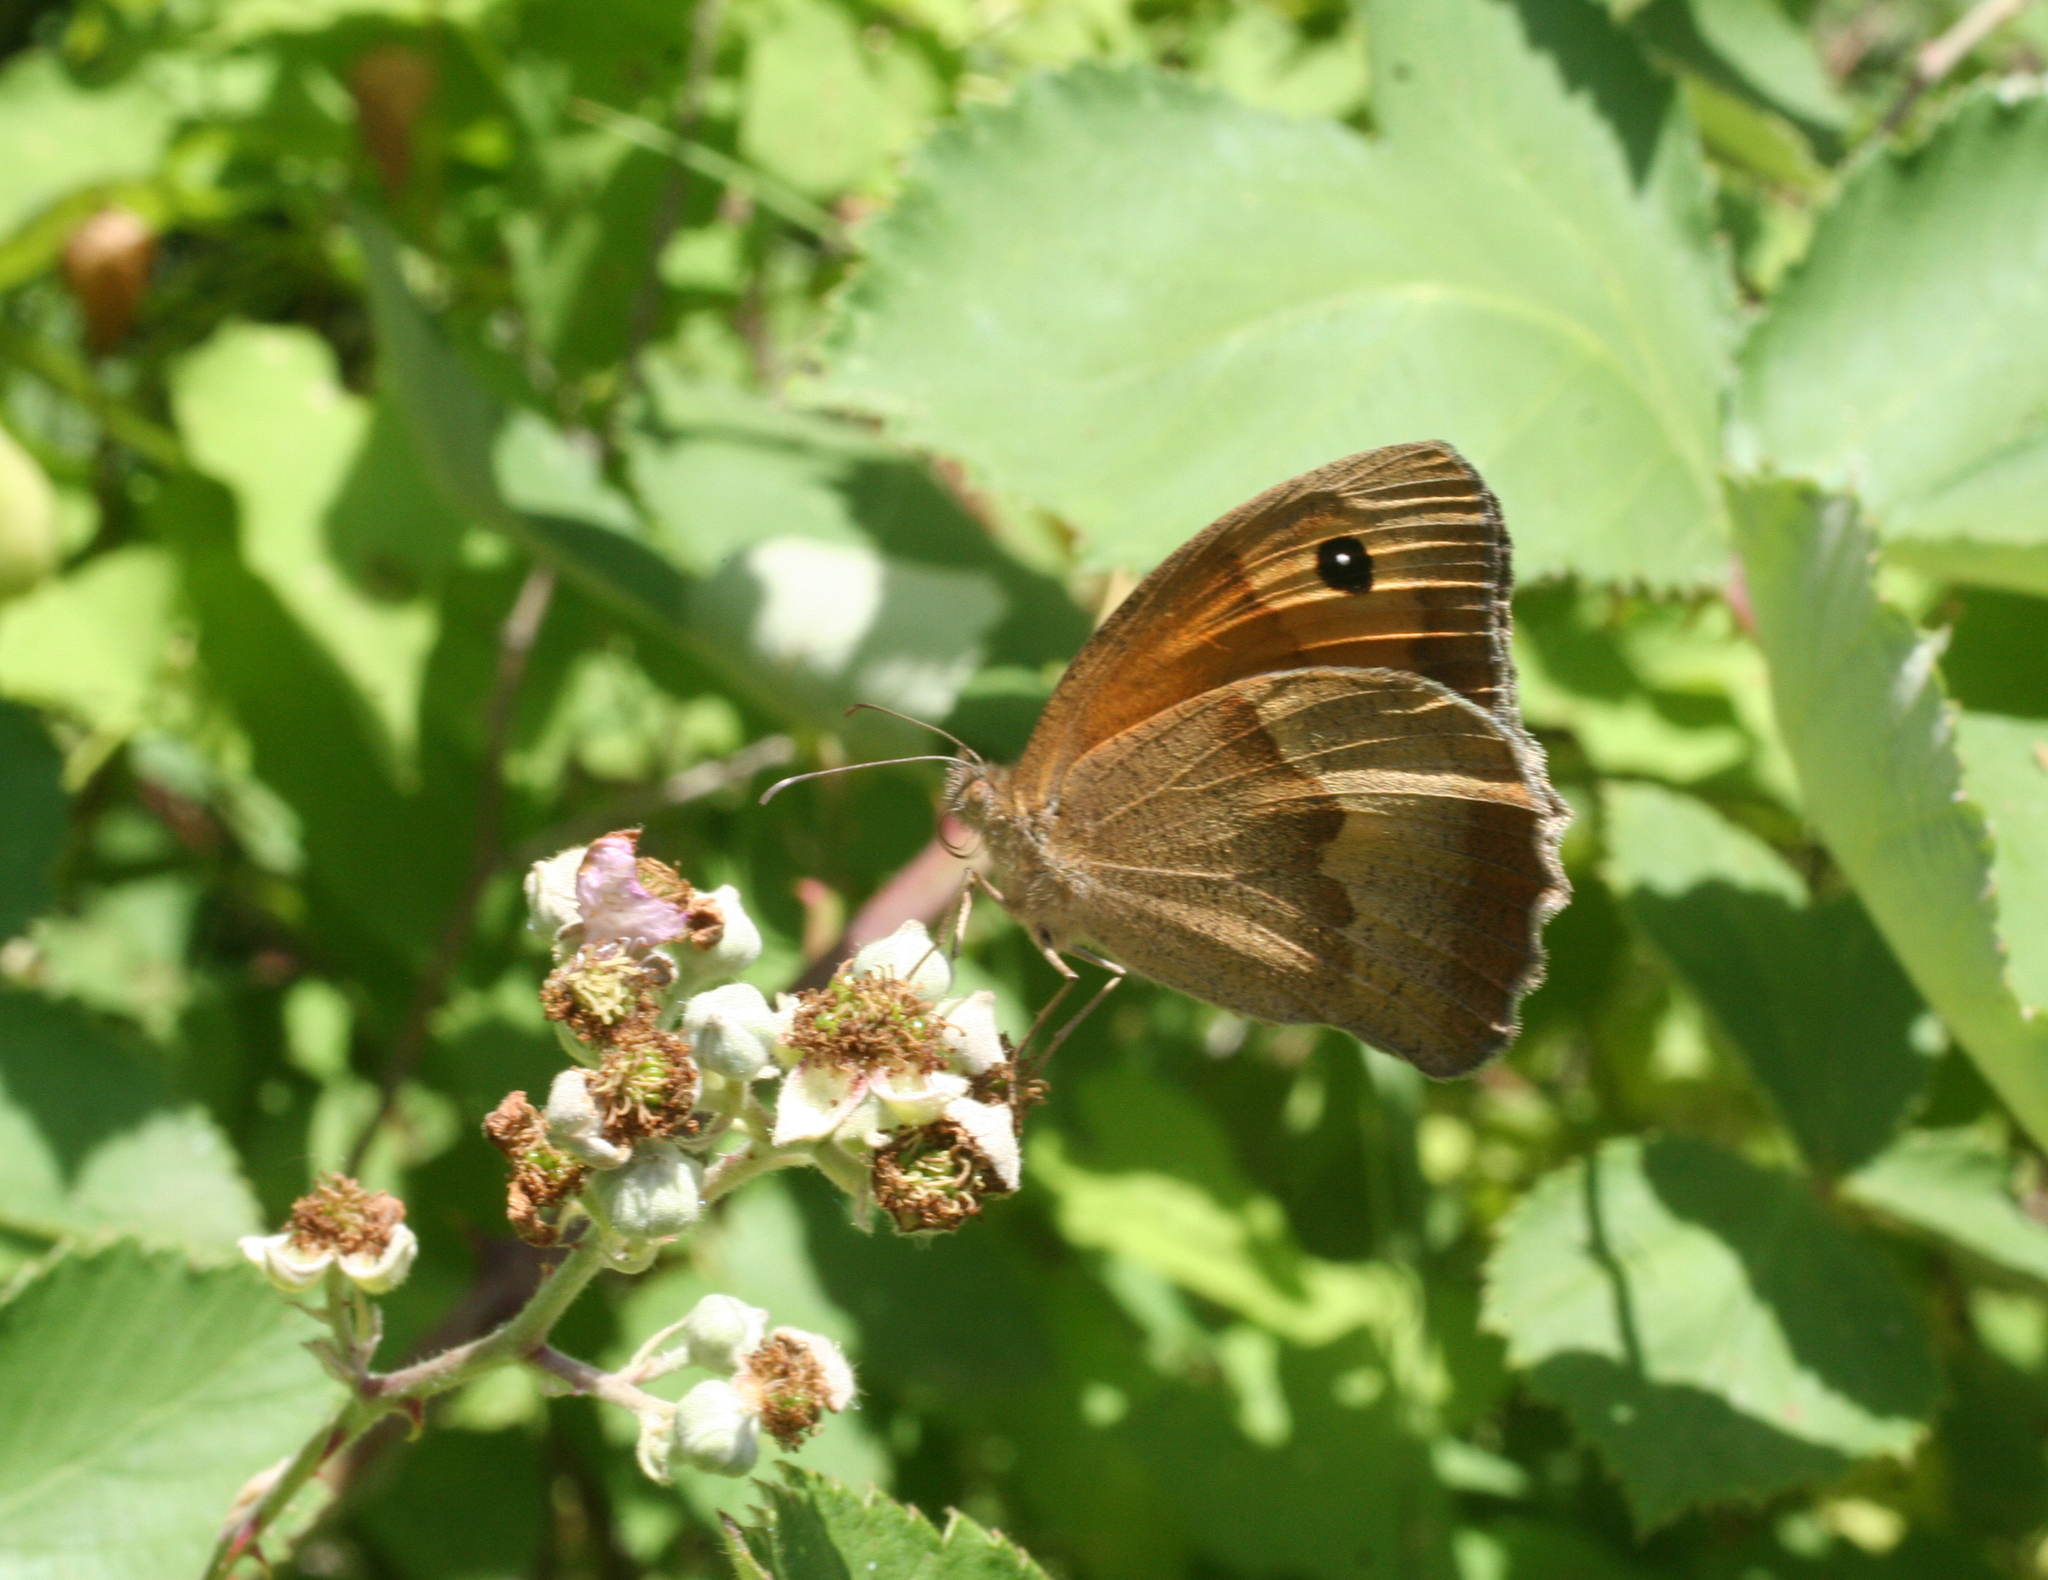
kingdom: Animalia
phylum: Arthropoda
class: Insecta
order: Lepidoptera
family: Nymphalidae
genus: Maniola
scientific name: Maniola jurtina
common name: Meadow brown
